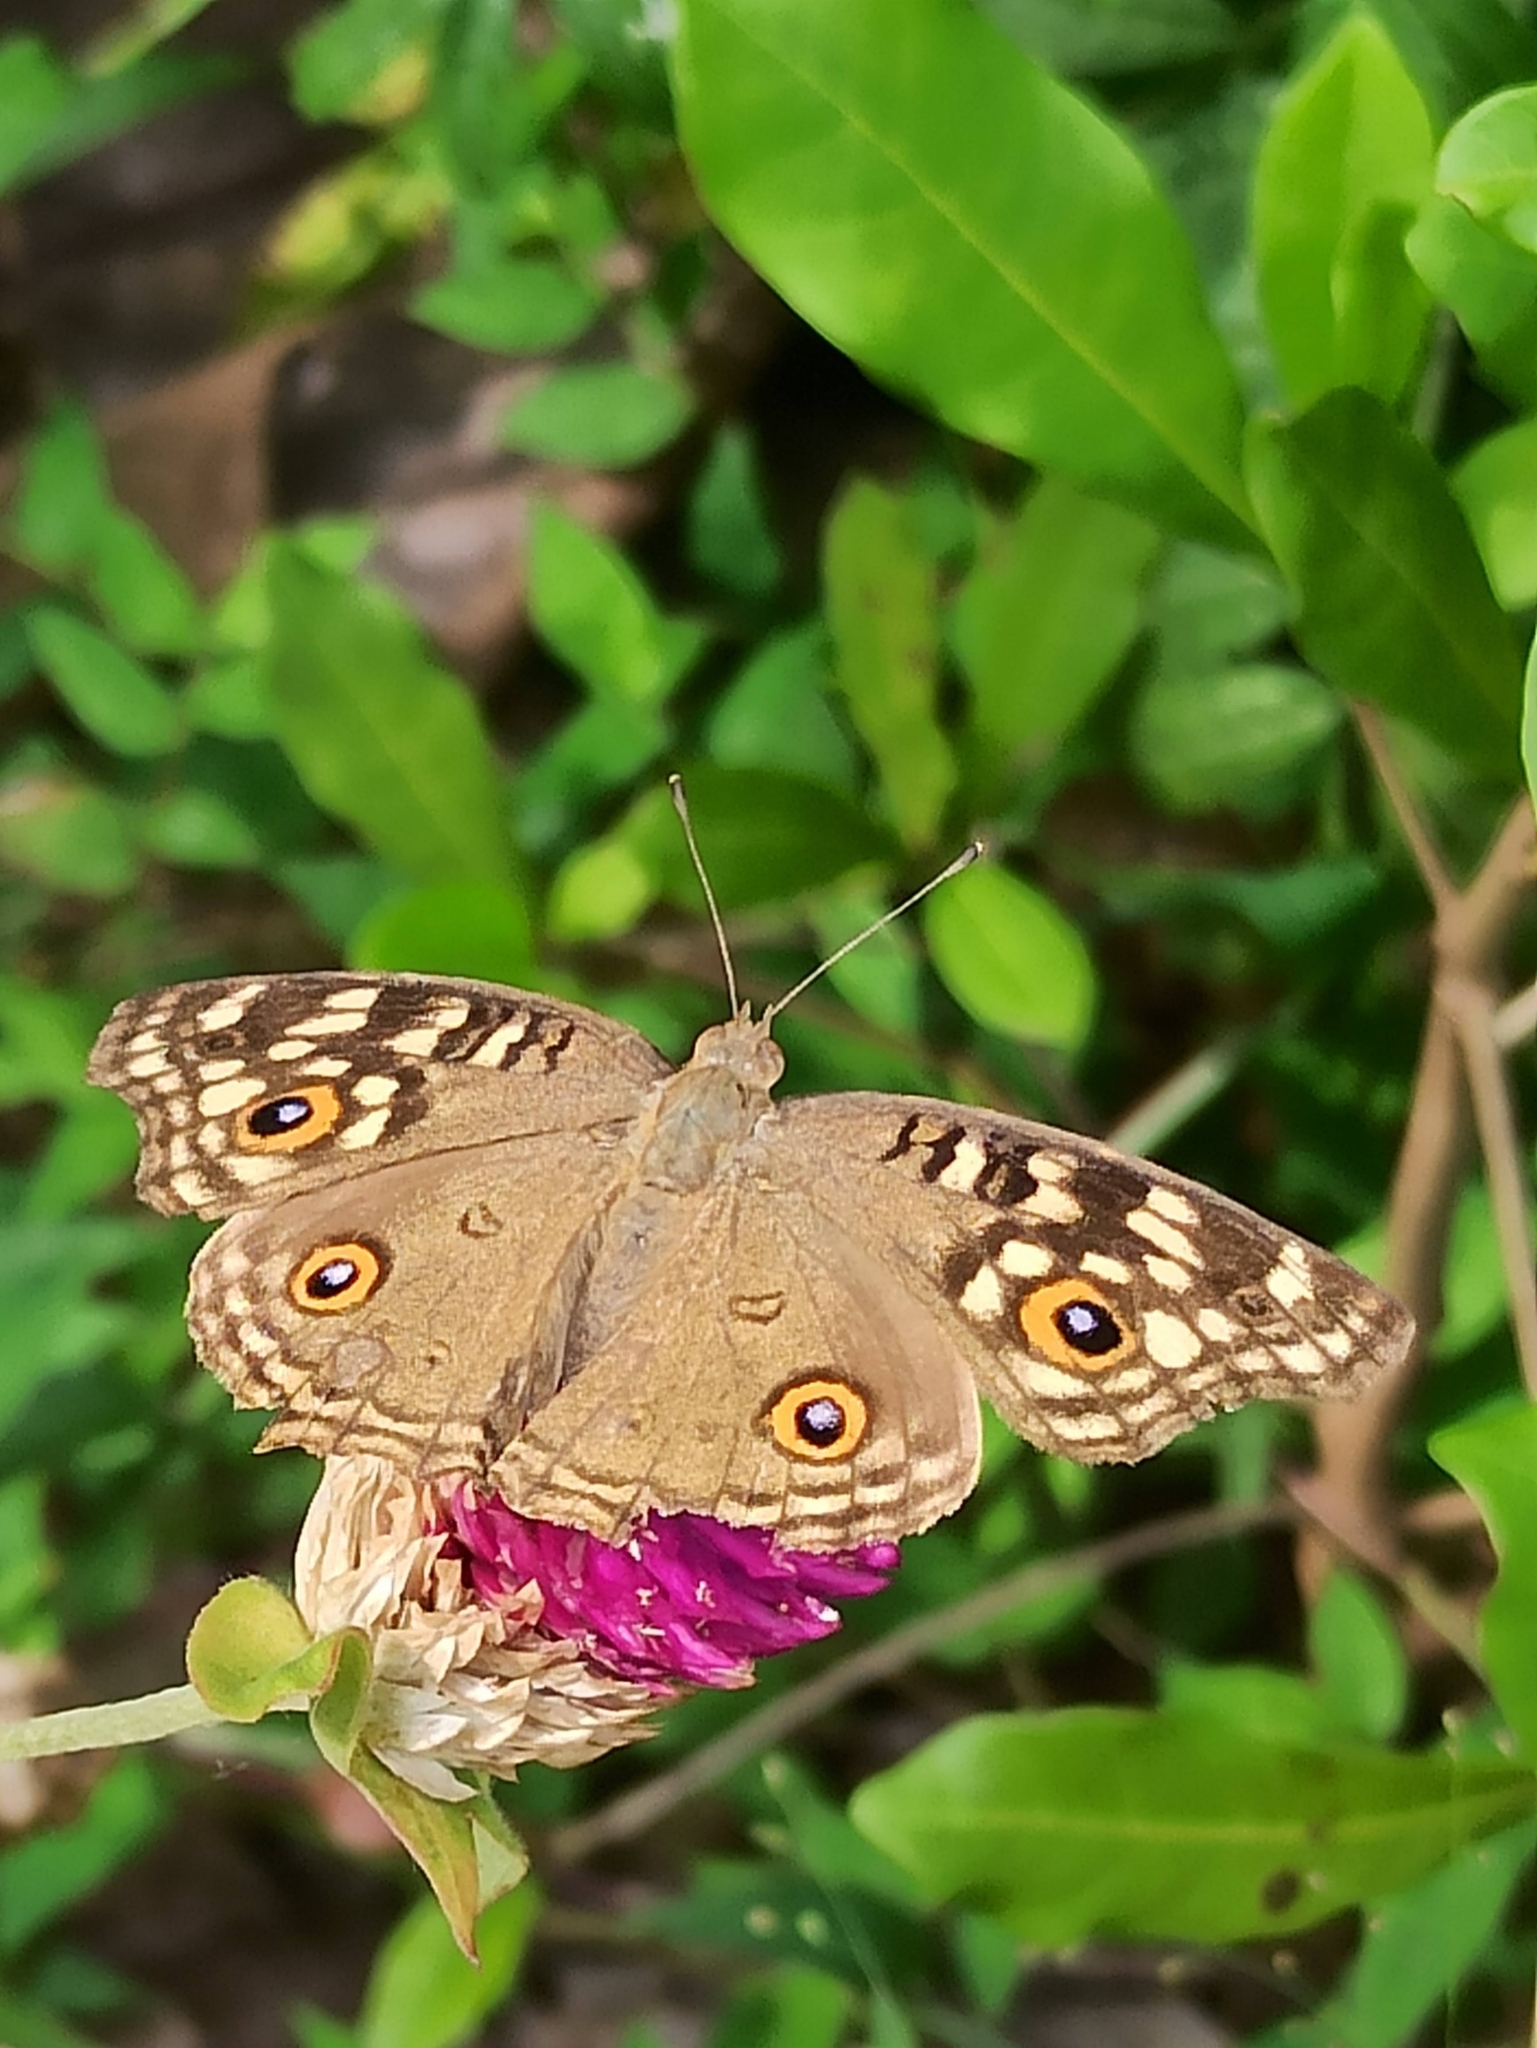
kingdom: Animalia
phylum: Arthropoda
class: Insecta
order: Lepidoptera
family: Nymphalidae
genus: Junonia
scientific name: Junonia lemonias
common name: Lemon pansy
